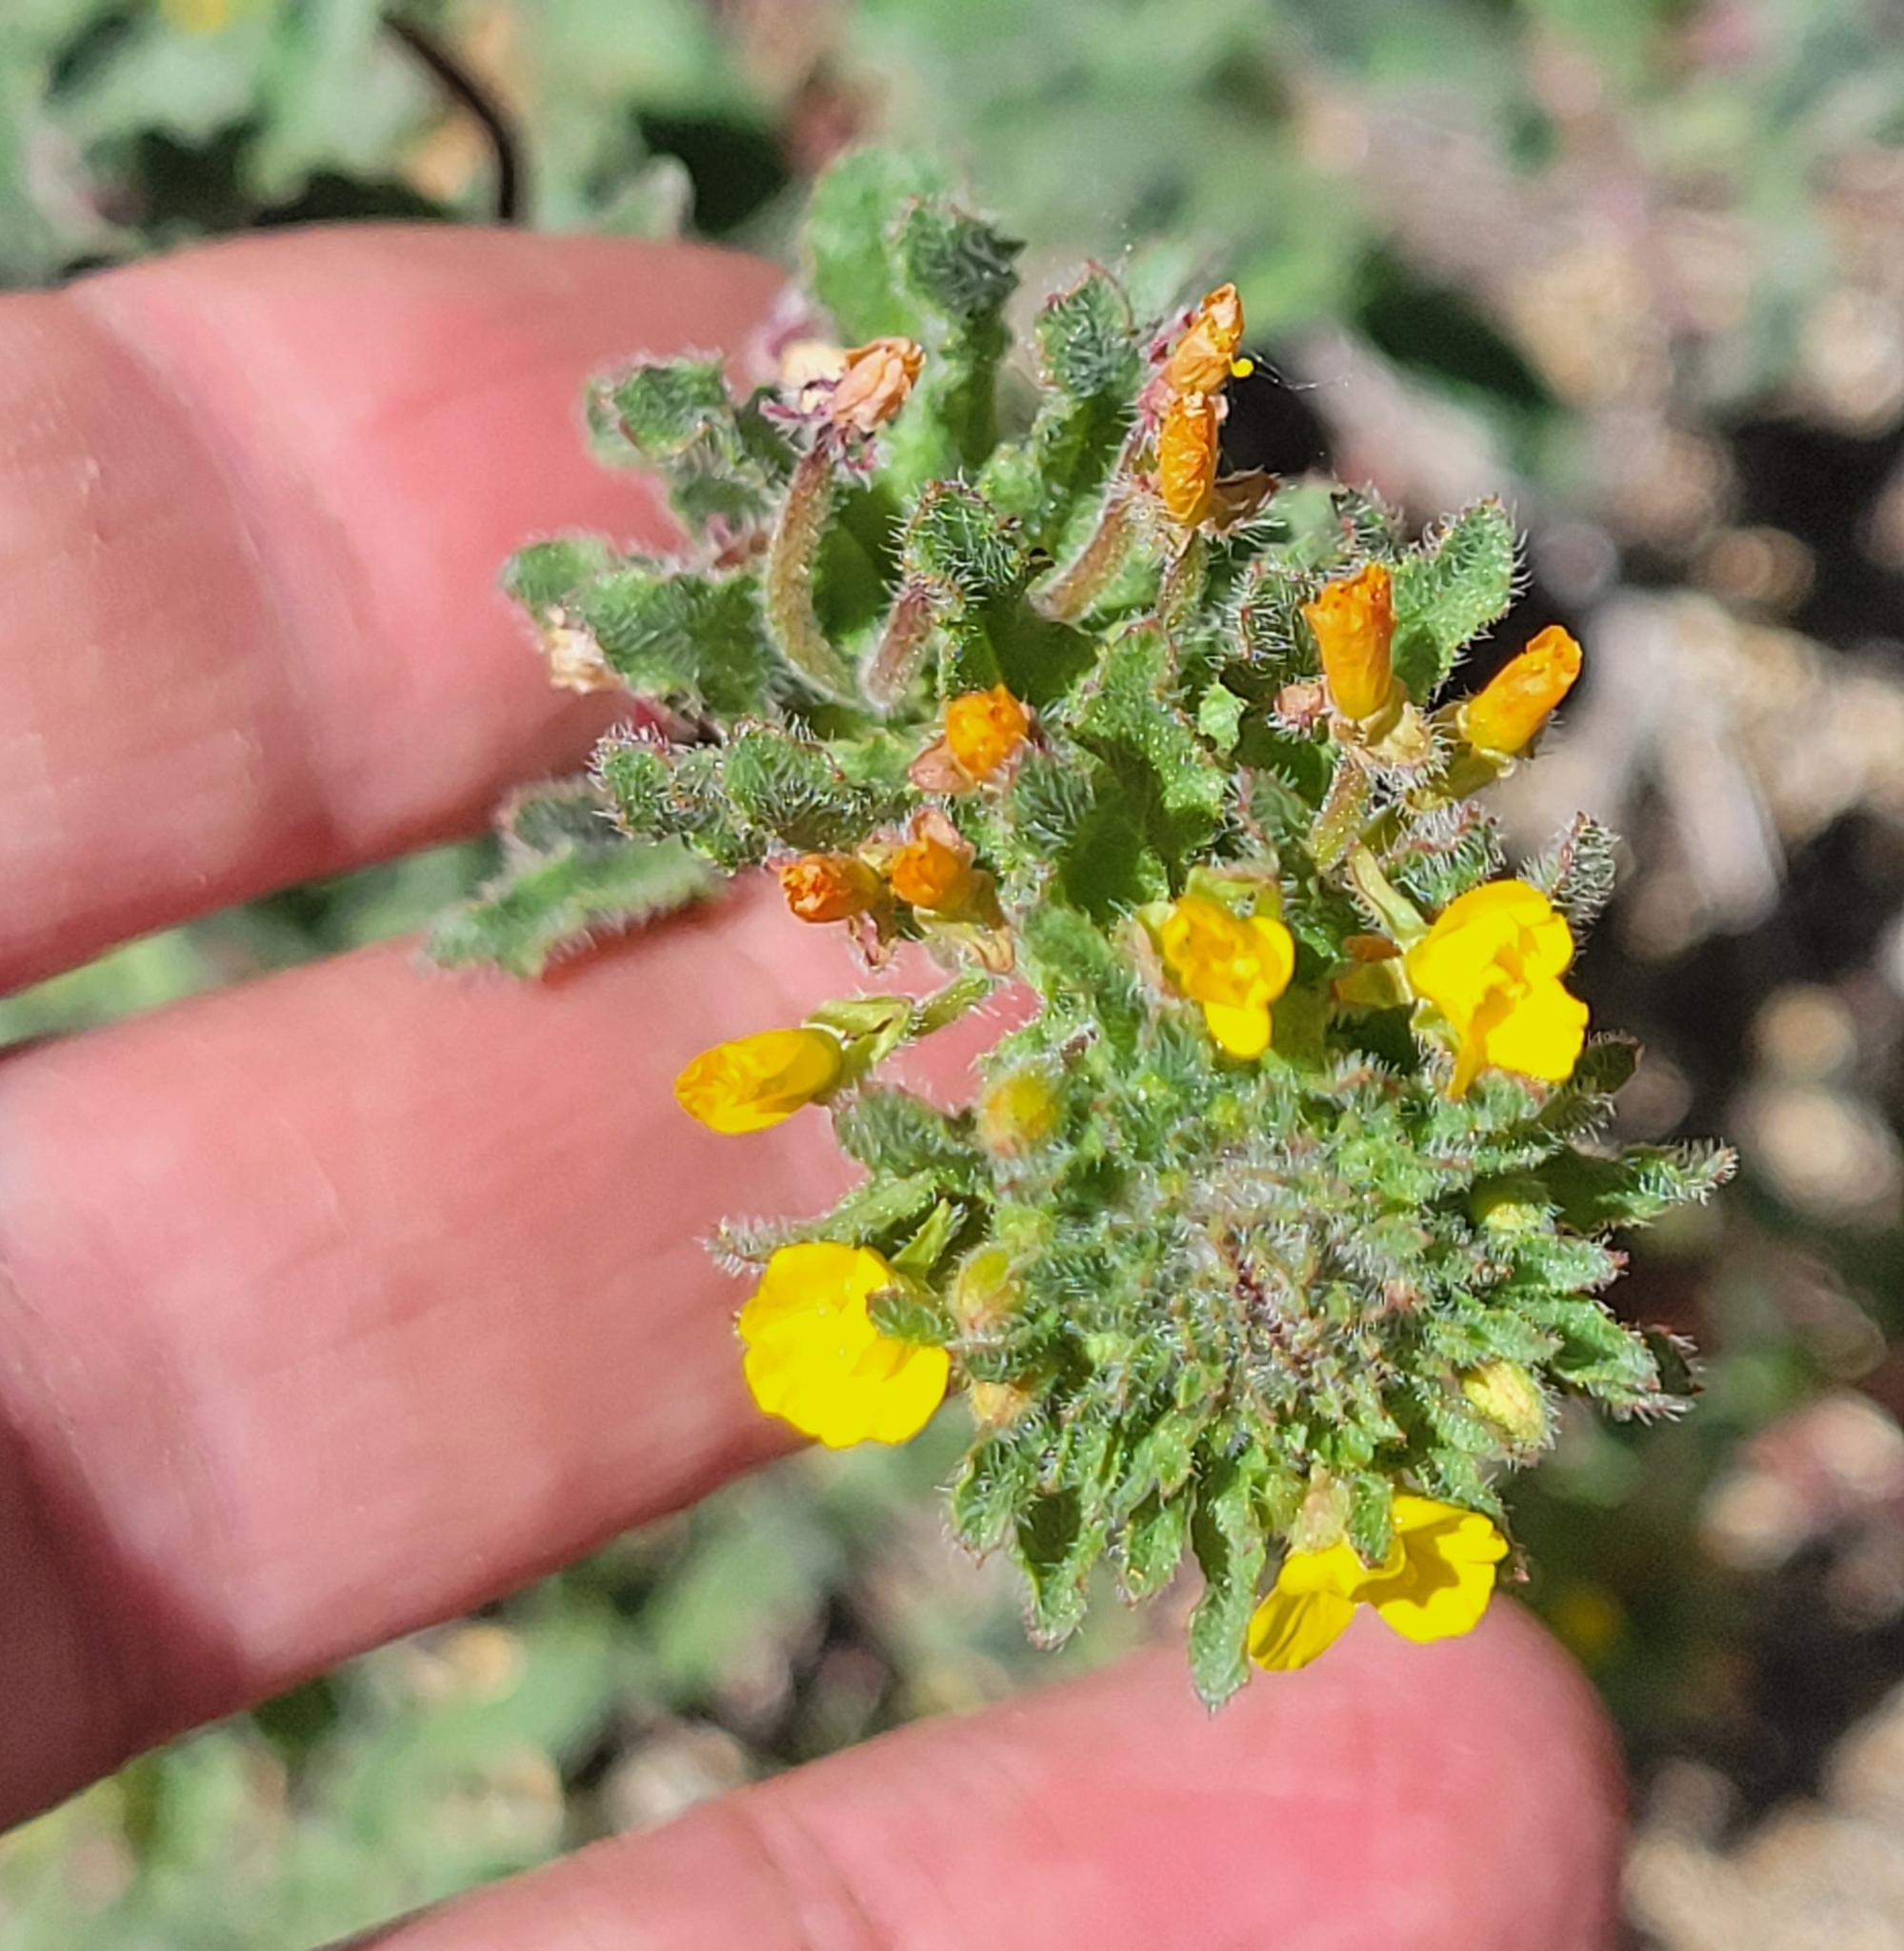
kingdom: Plantae
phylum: Tracheophyta
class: Magnoliopsida
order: Myrtales
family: Onagraceae
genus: Camissoniopsis
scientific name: Camissoniopsis hirtella
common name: Santa cruz island suncup
